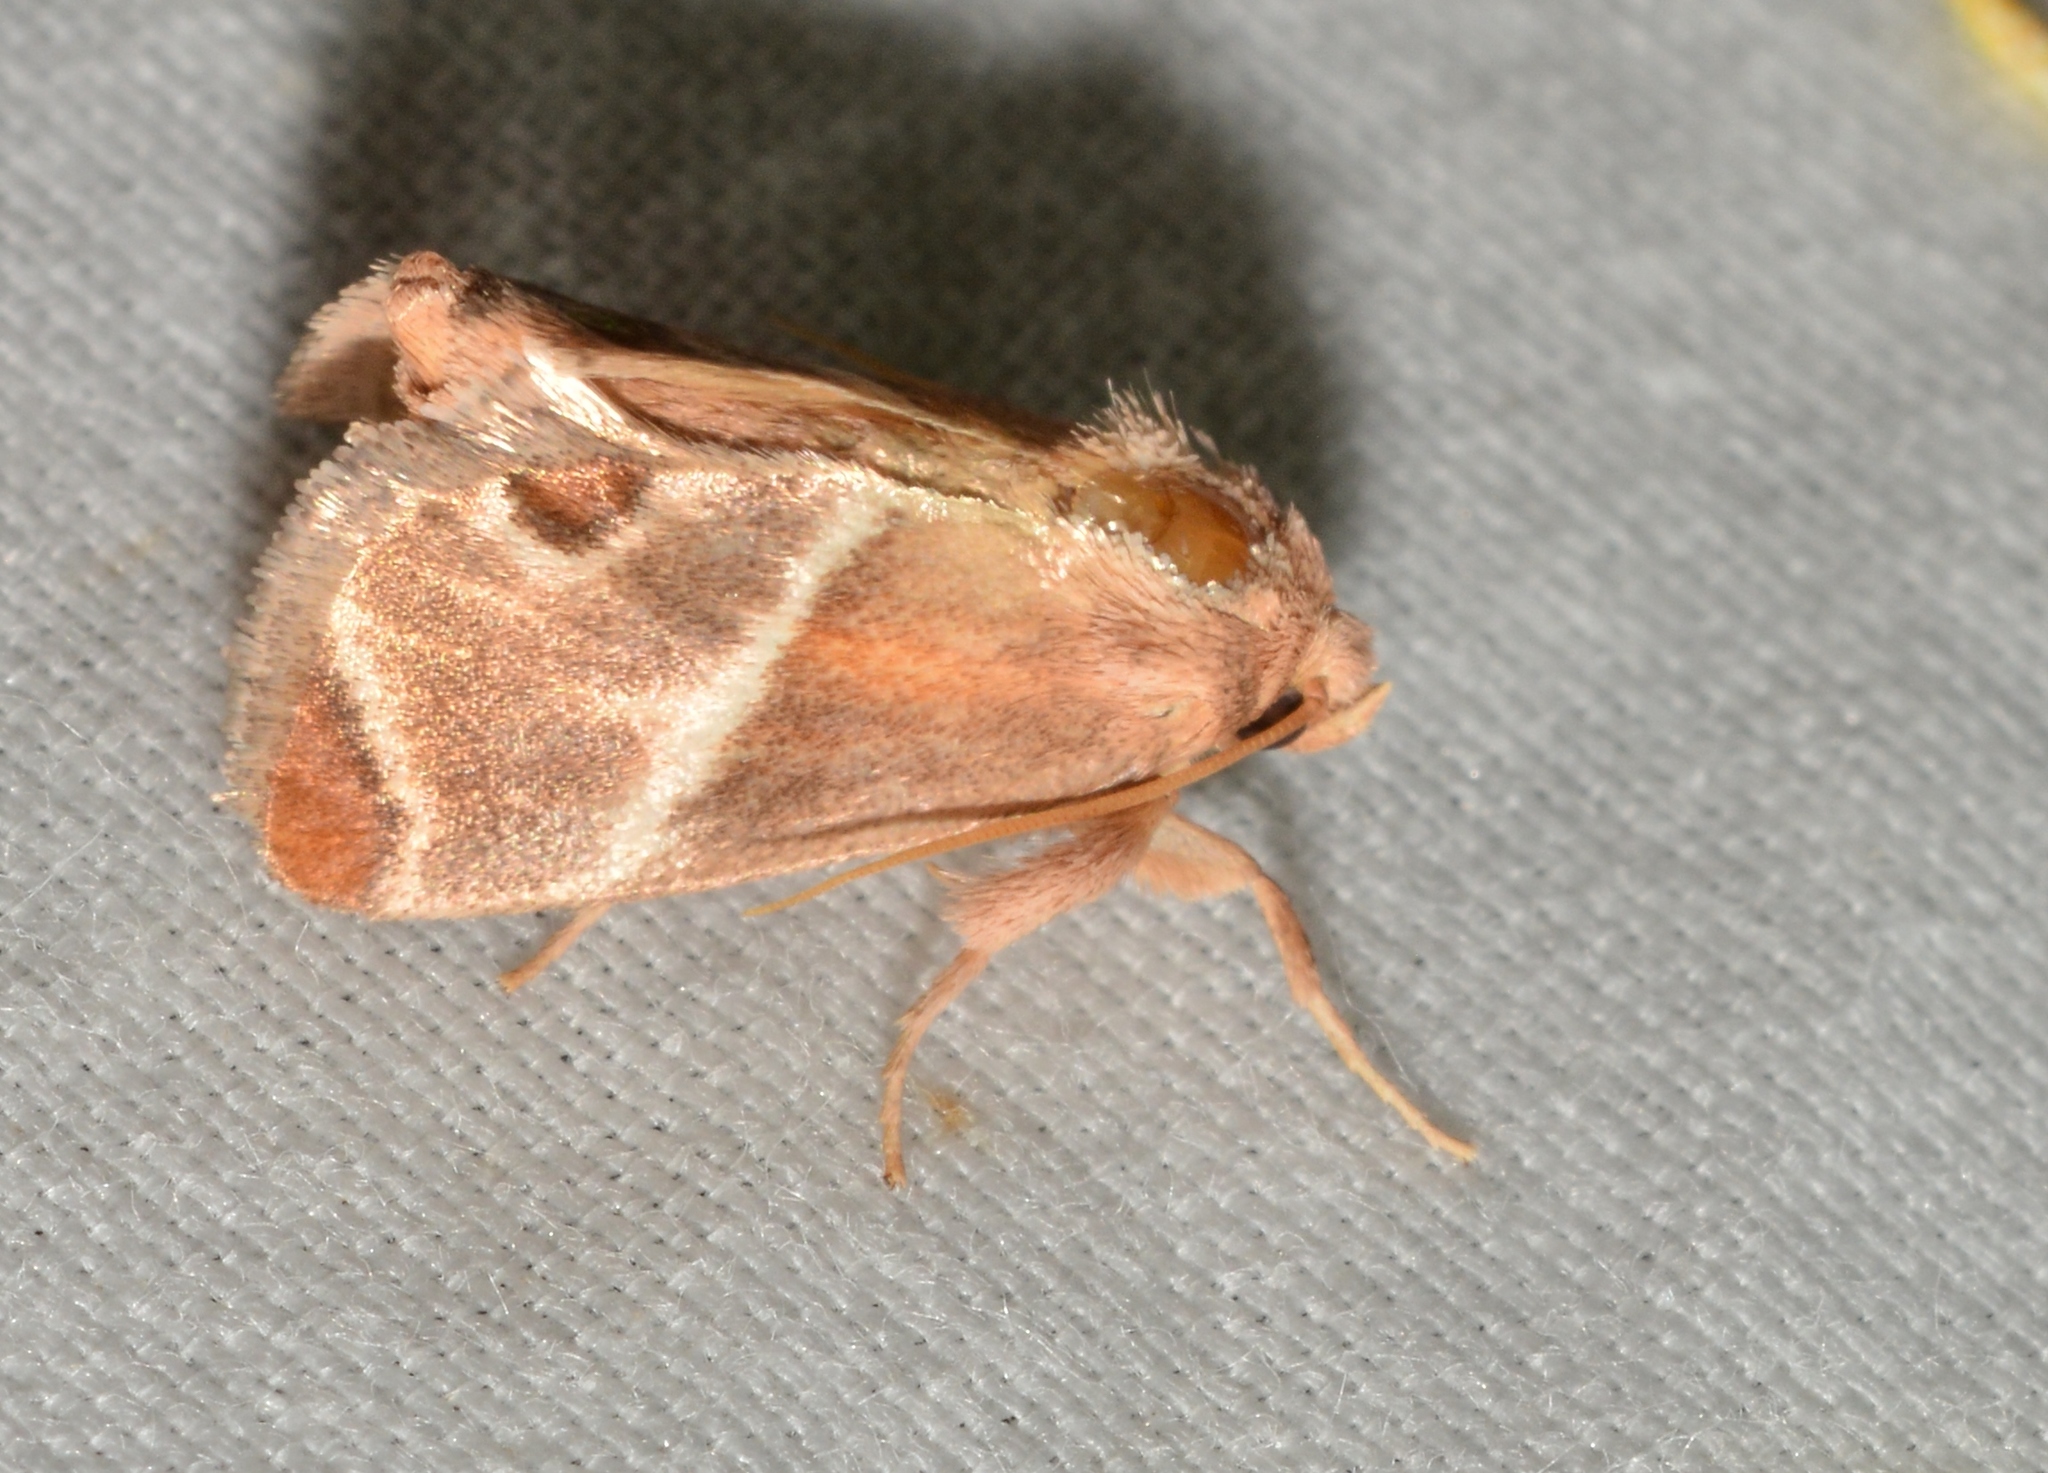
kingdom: Animalia
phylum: Arthropoda
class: Insecta
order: Lepidoptera
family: Limacodidae
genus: Apoda
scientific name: Apoda biguttata
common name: Shagreened slug moth
